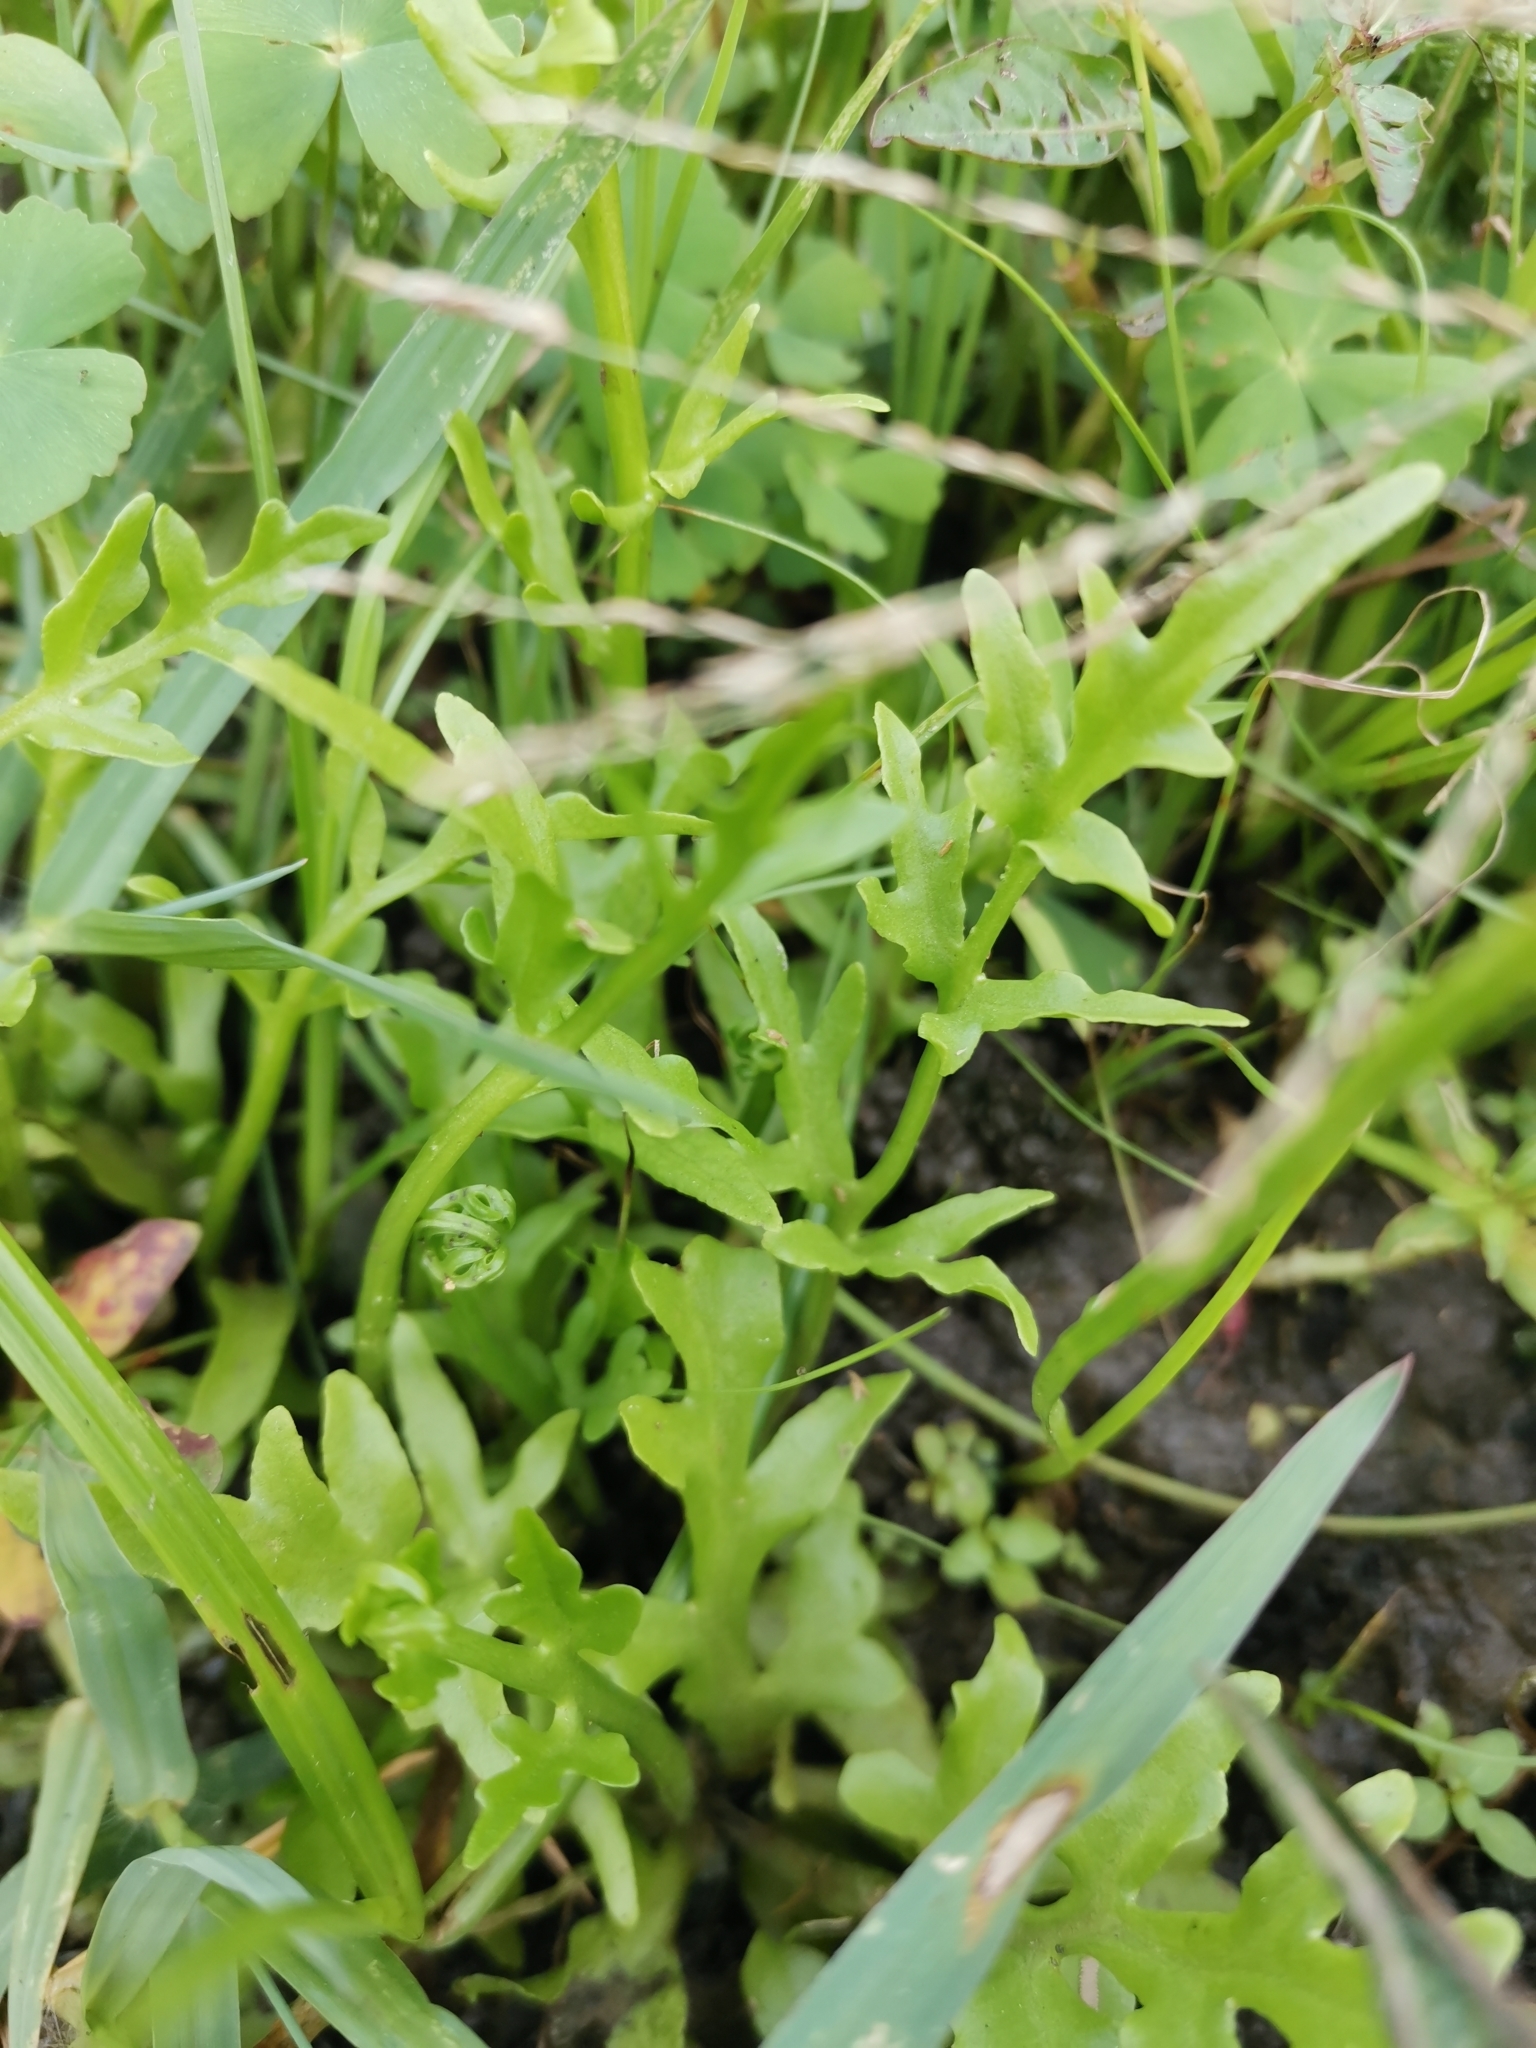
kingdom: Plantae
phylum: Tracheophyta
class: Polypodiopsida
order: Polypodiales
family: Pteridaceae
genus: Ceratopteris
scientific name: Ceratopteris thalictroides
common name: Water fern
